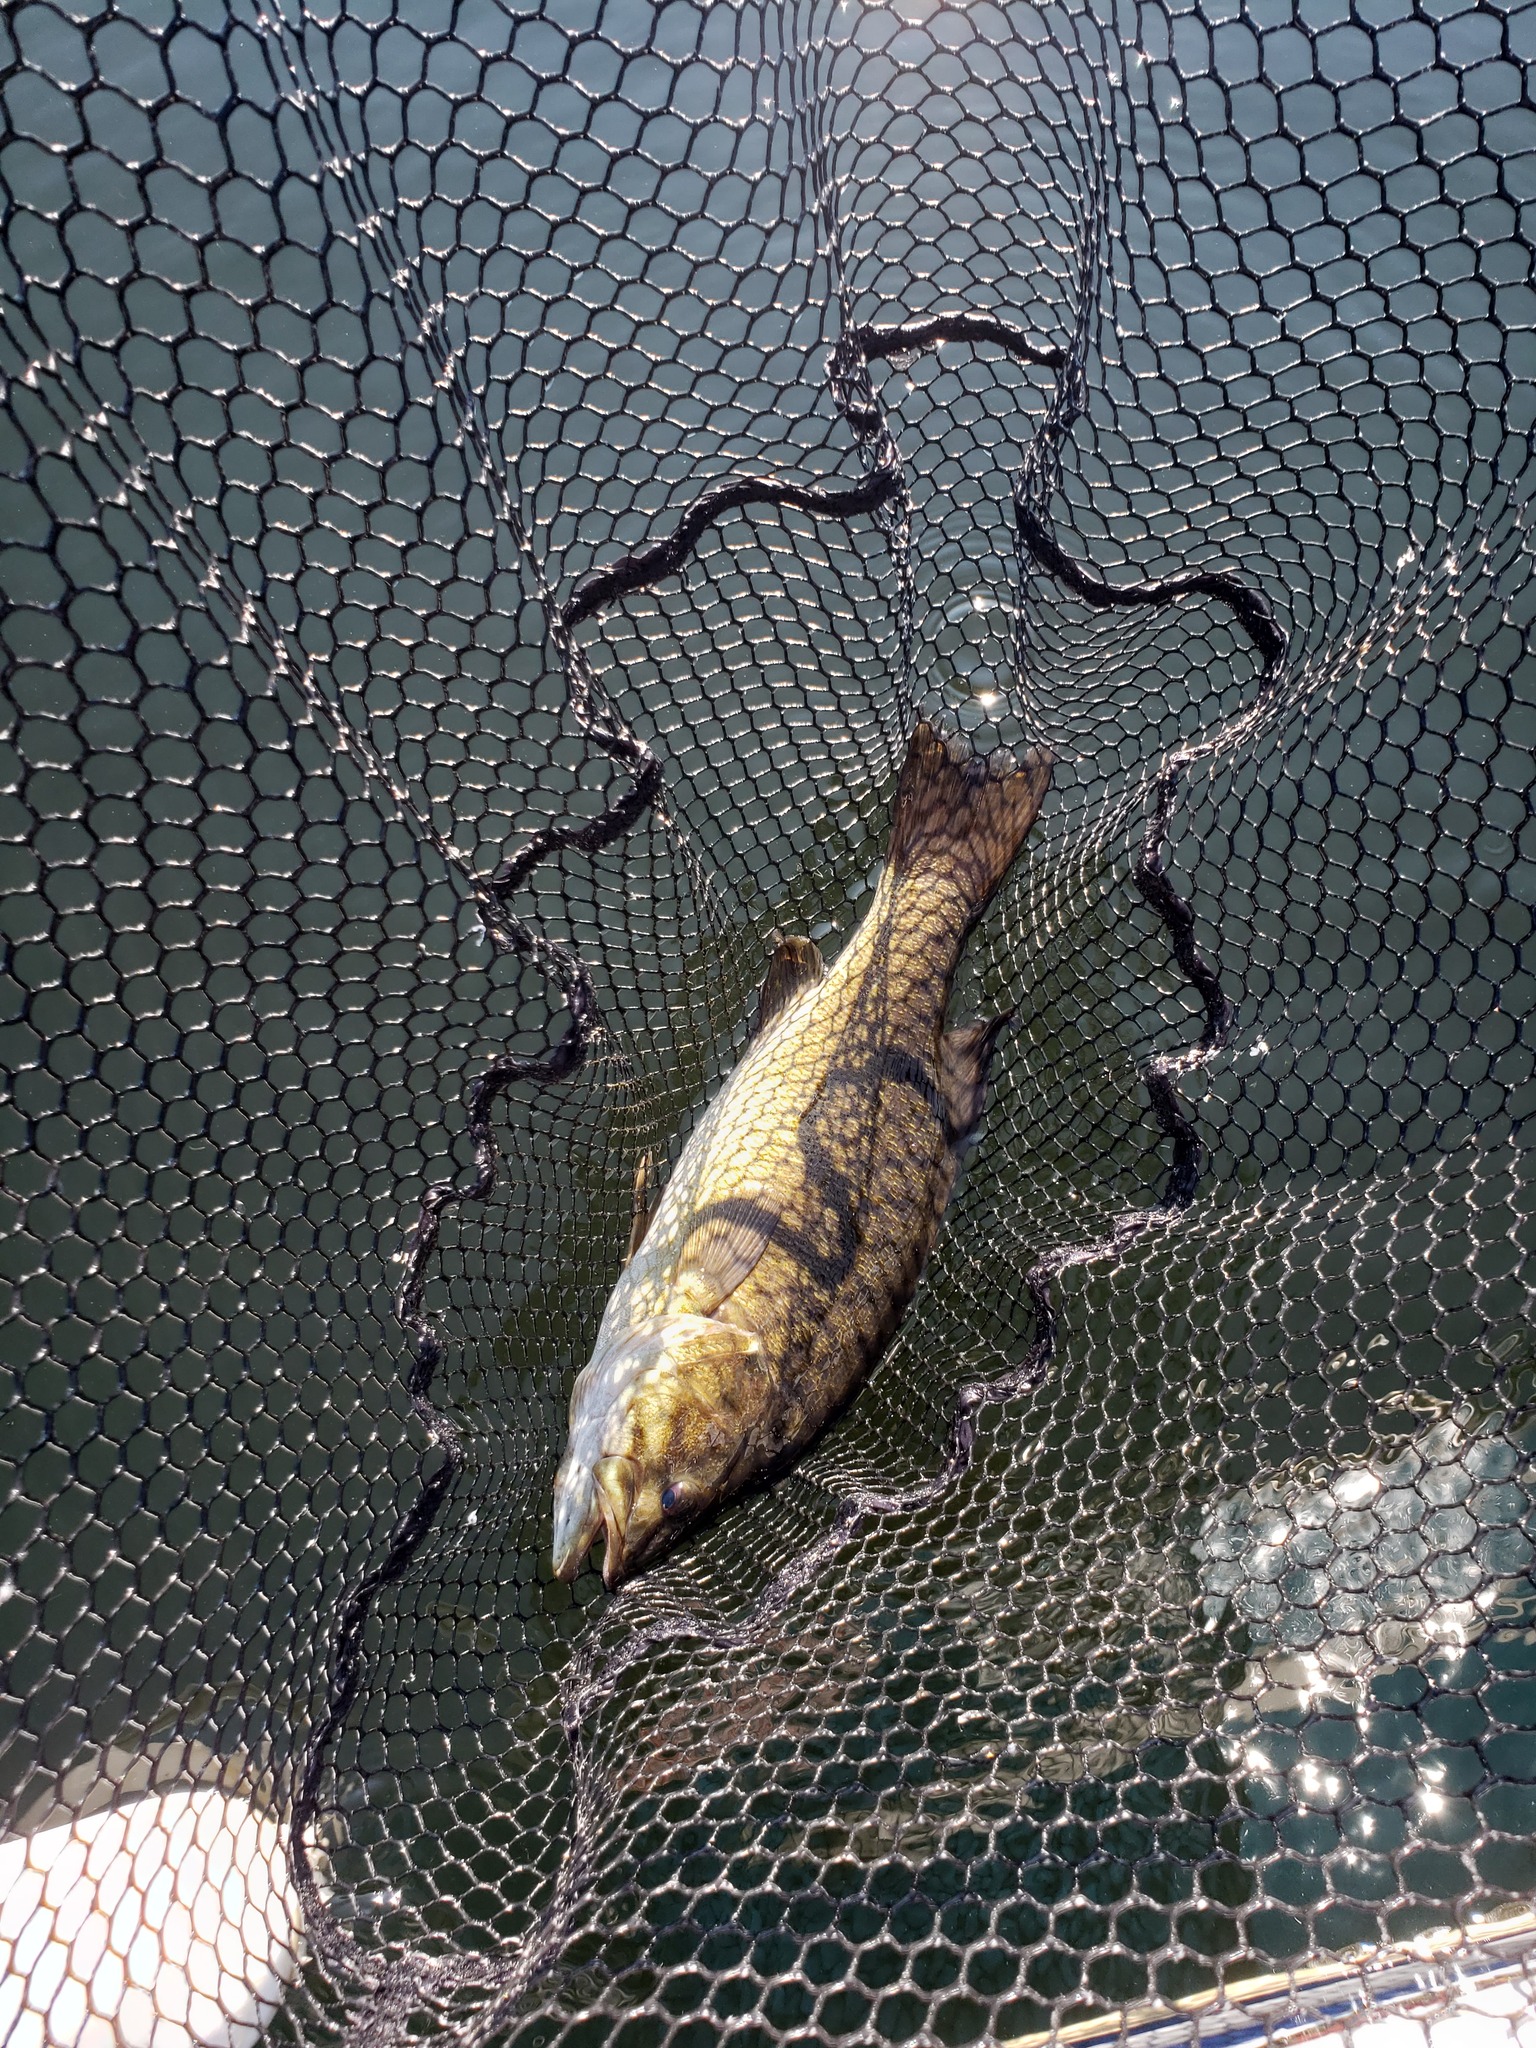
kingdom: Animalia
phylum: Chordata
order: Perciformes
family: Centrarchidae
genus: Micropterus
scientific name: Micropterus dolomieu
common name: Smallmouth bass
